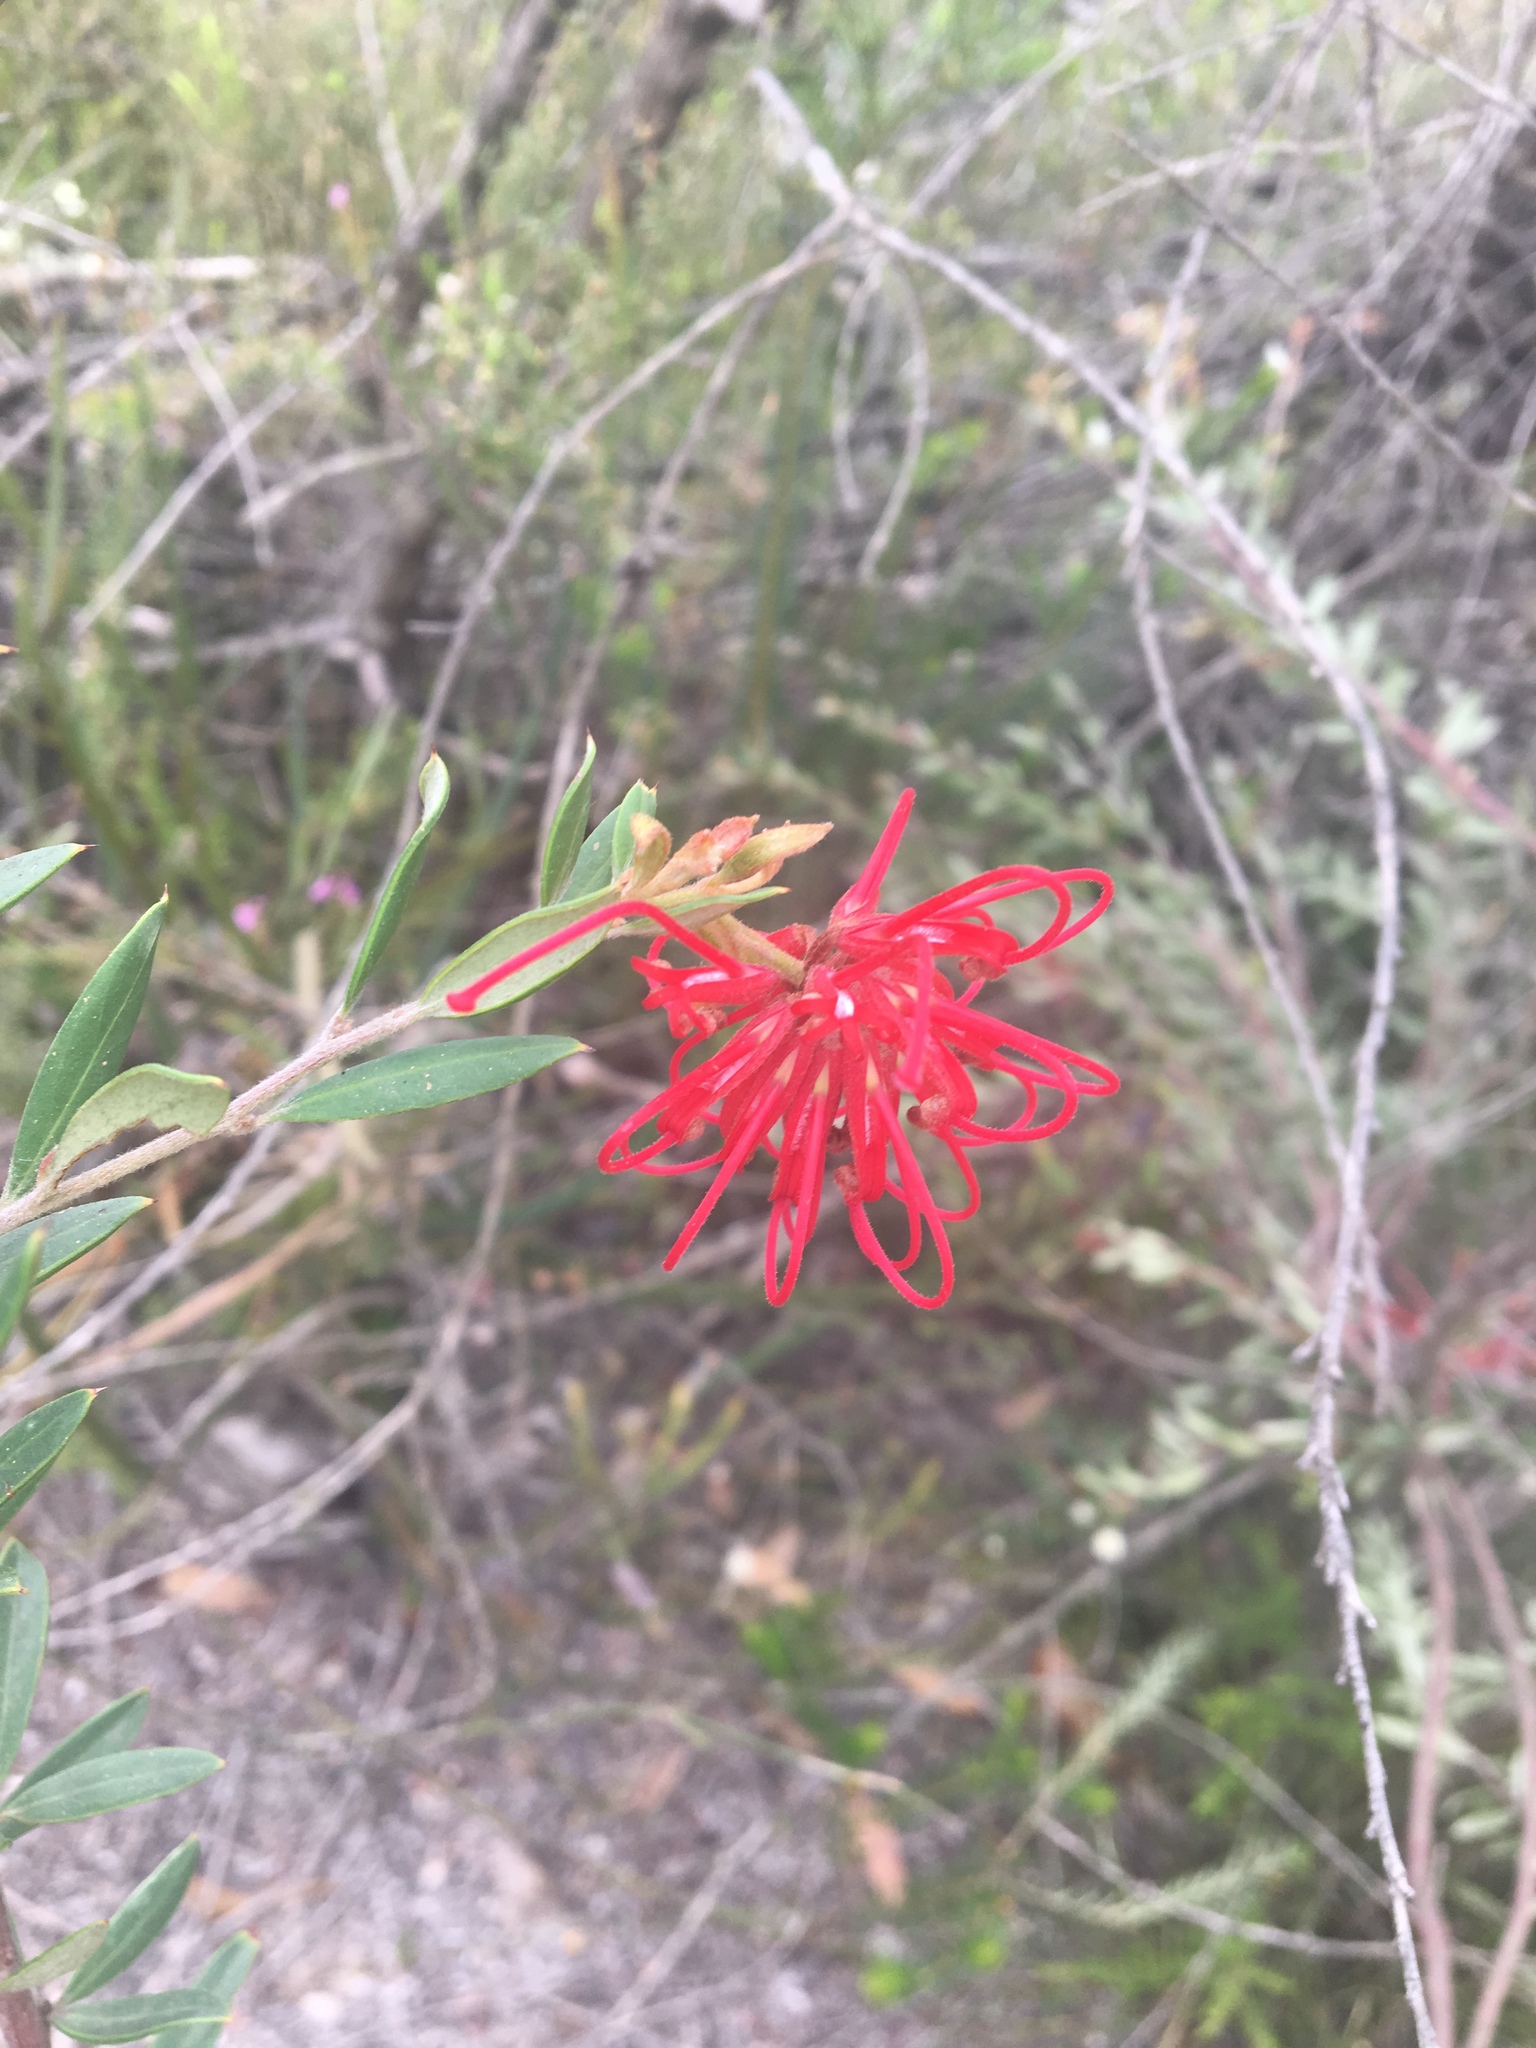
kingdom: Plantae
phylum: Tracheophyta
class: Magnoliopsida
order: Proteales
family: Proteaceae
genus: Grevillea
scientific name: Grevillea speciosa
